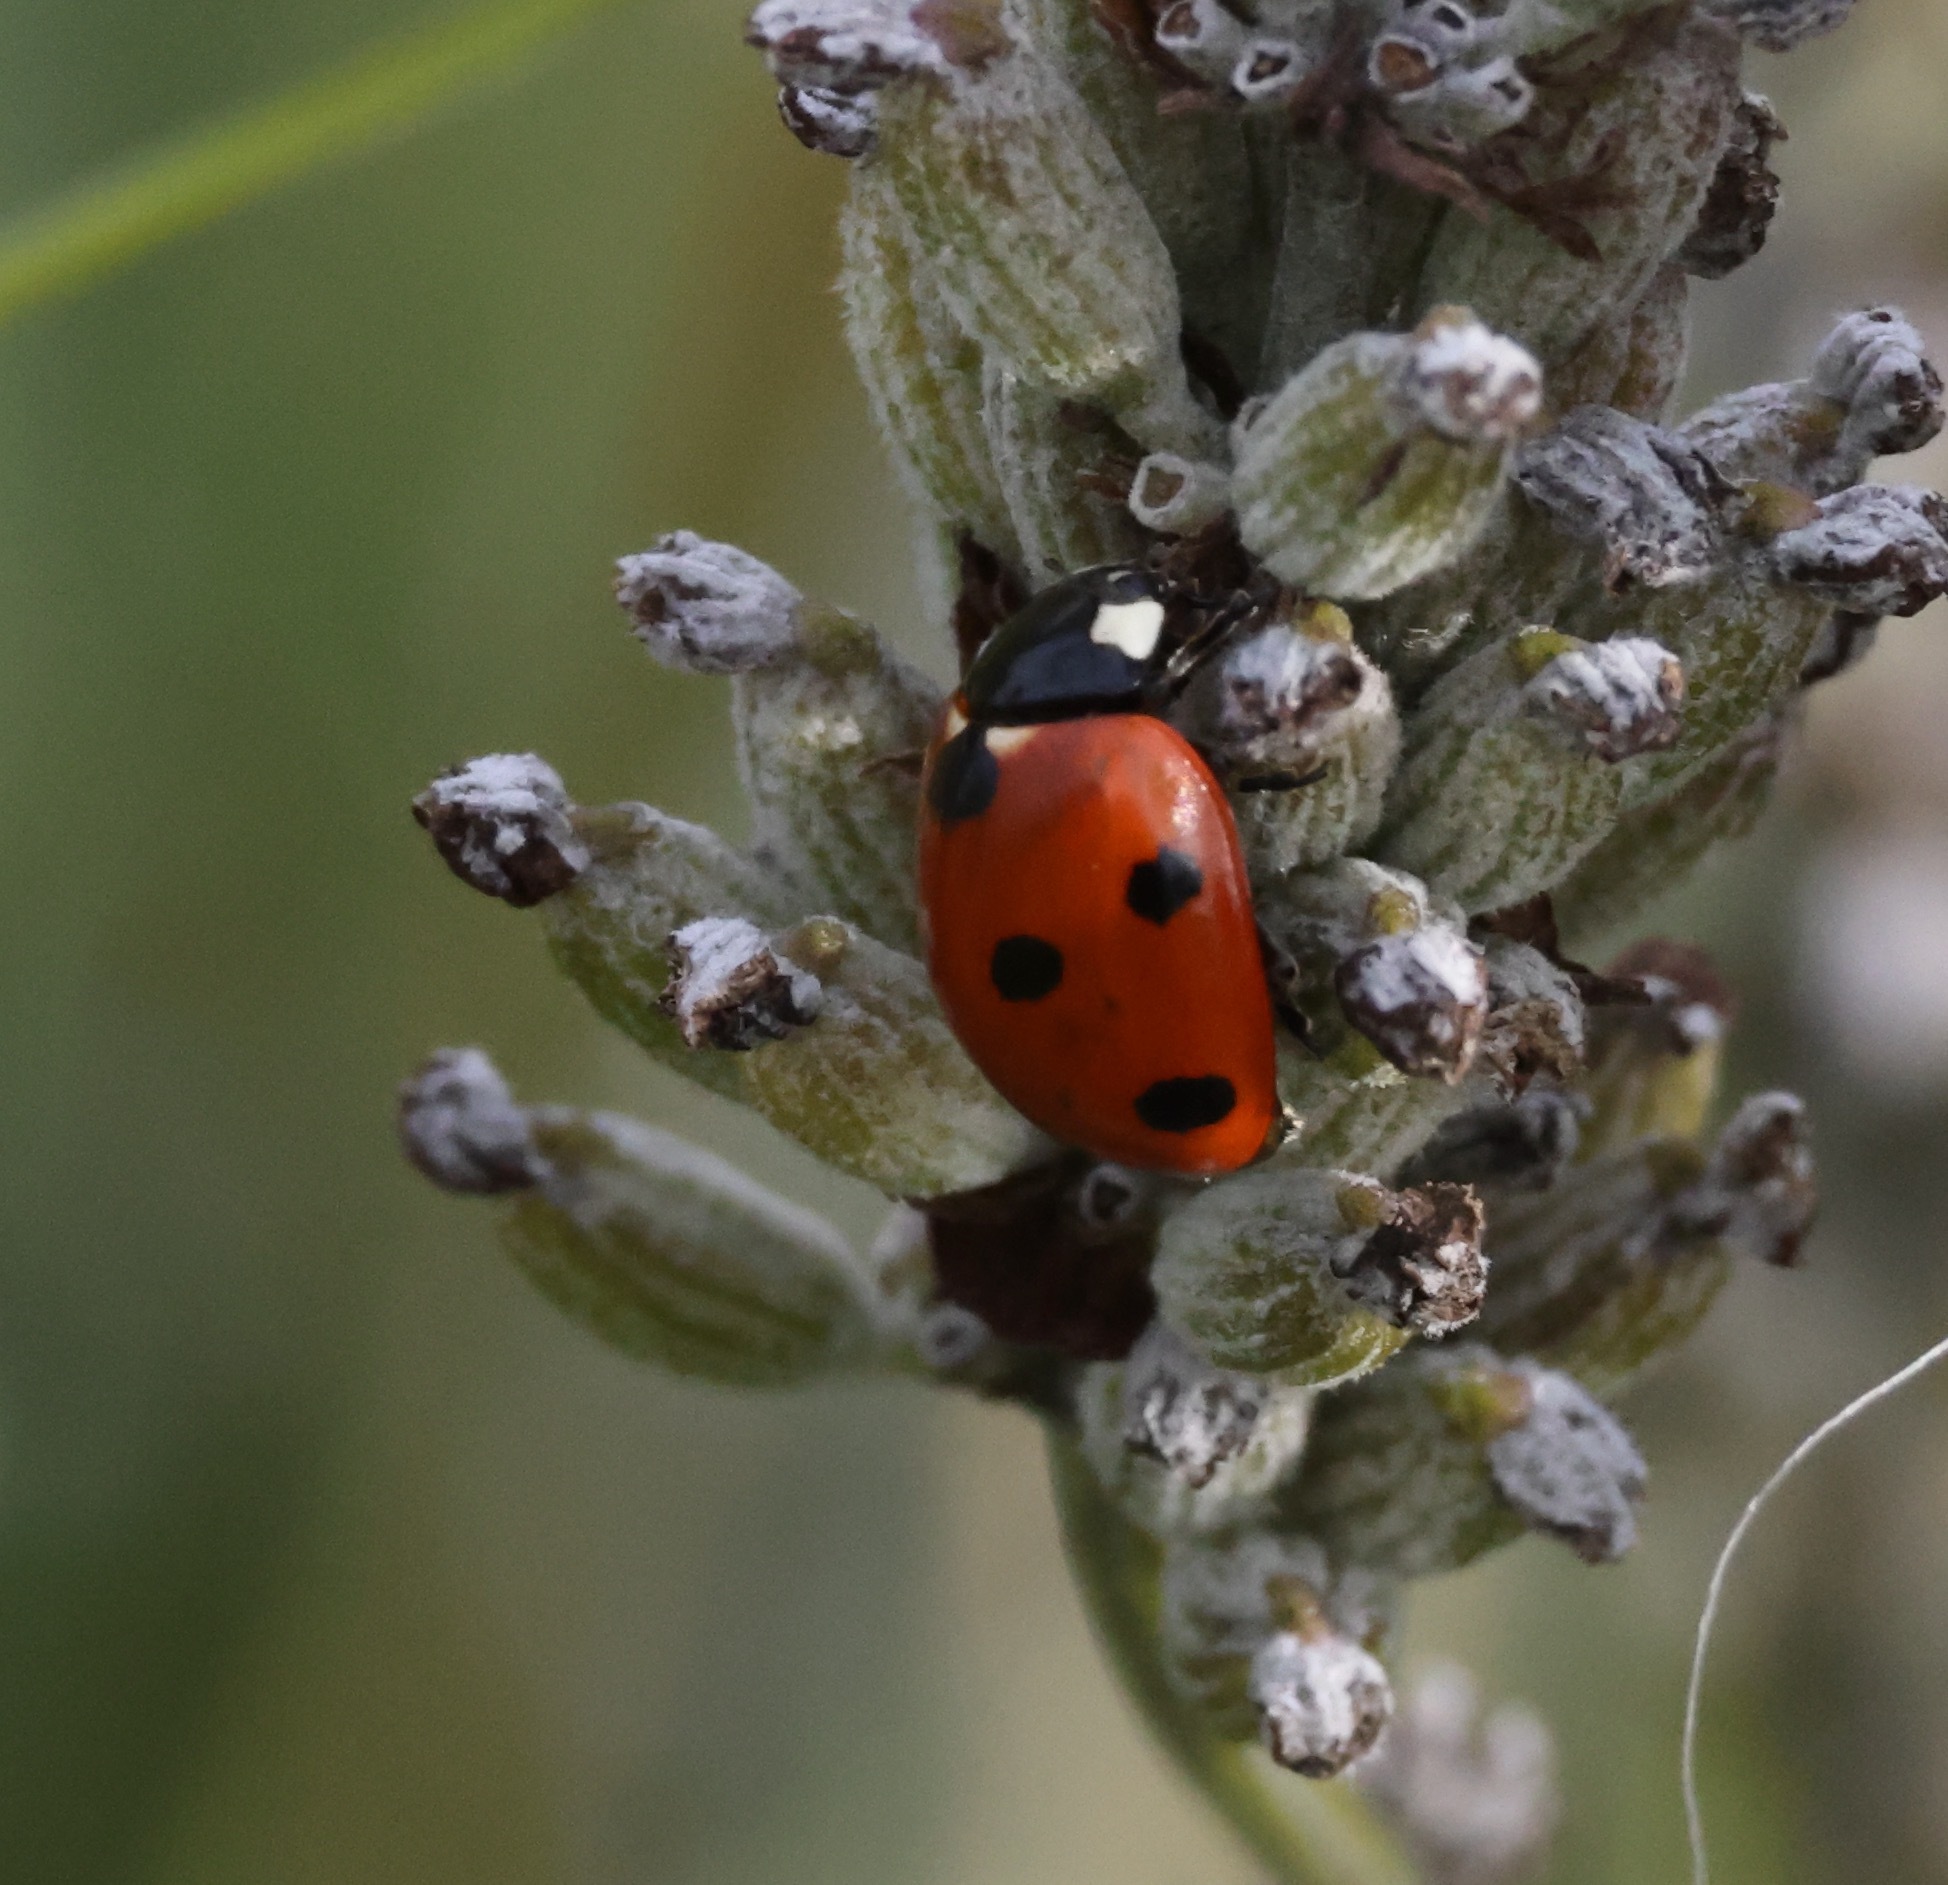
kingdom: Animalia
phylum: Arthropoda
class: Insecta
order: Coleoptera
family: Coccinellidae
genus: Coccinella
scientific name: Coccinella septempunctata
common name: Sevenspotted lady beetle
